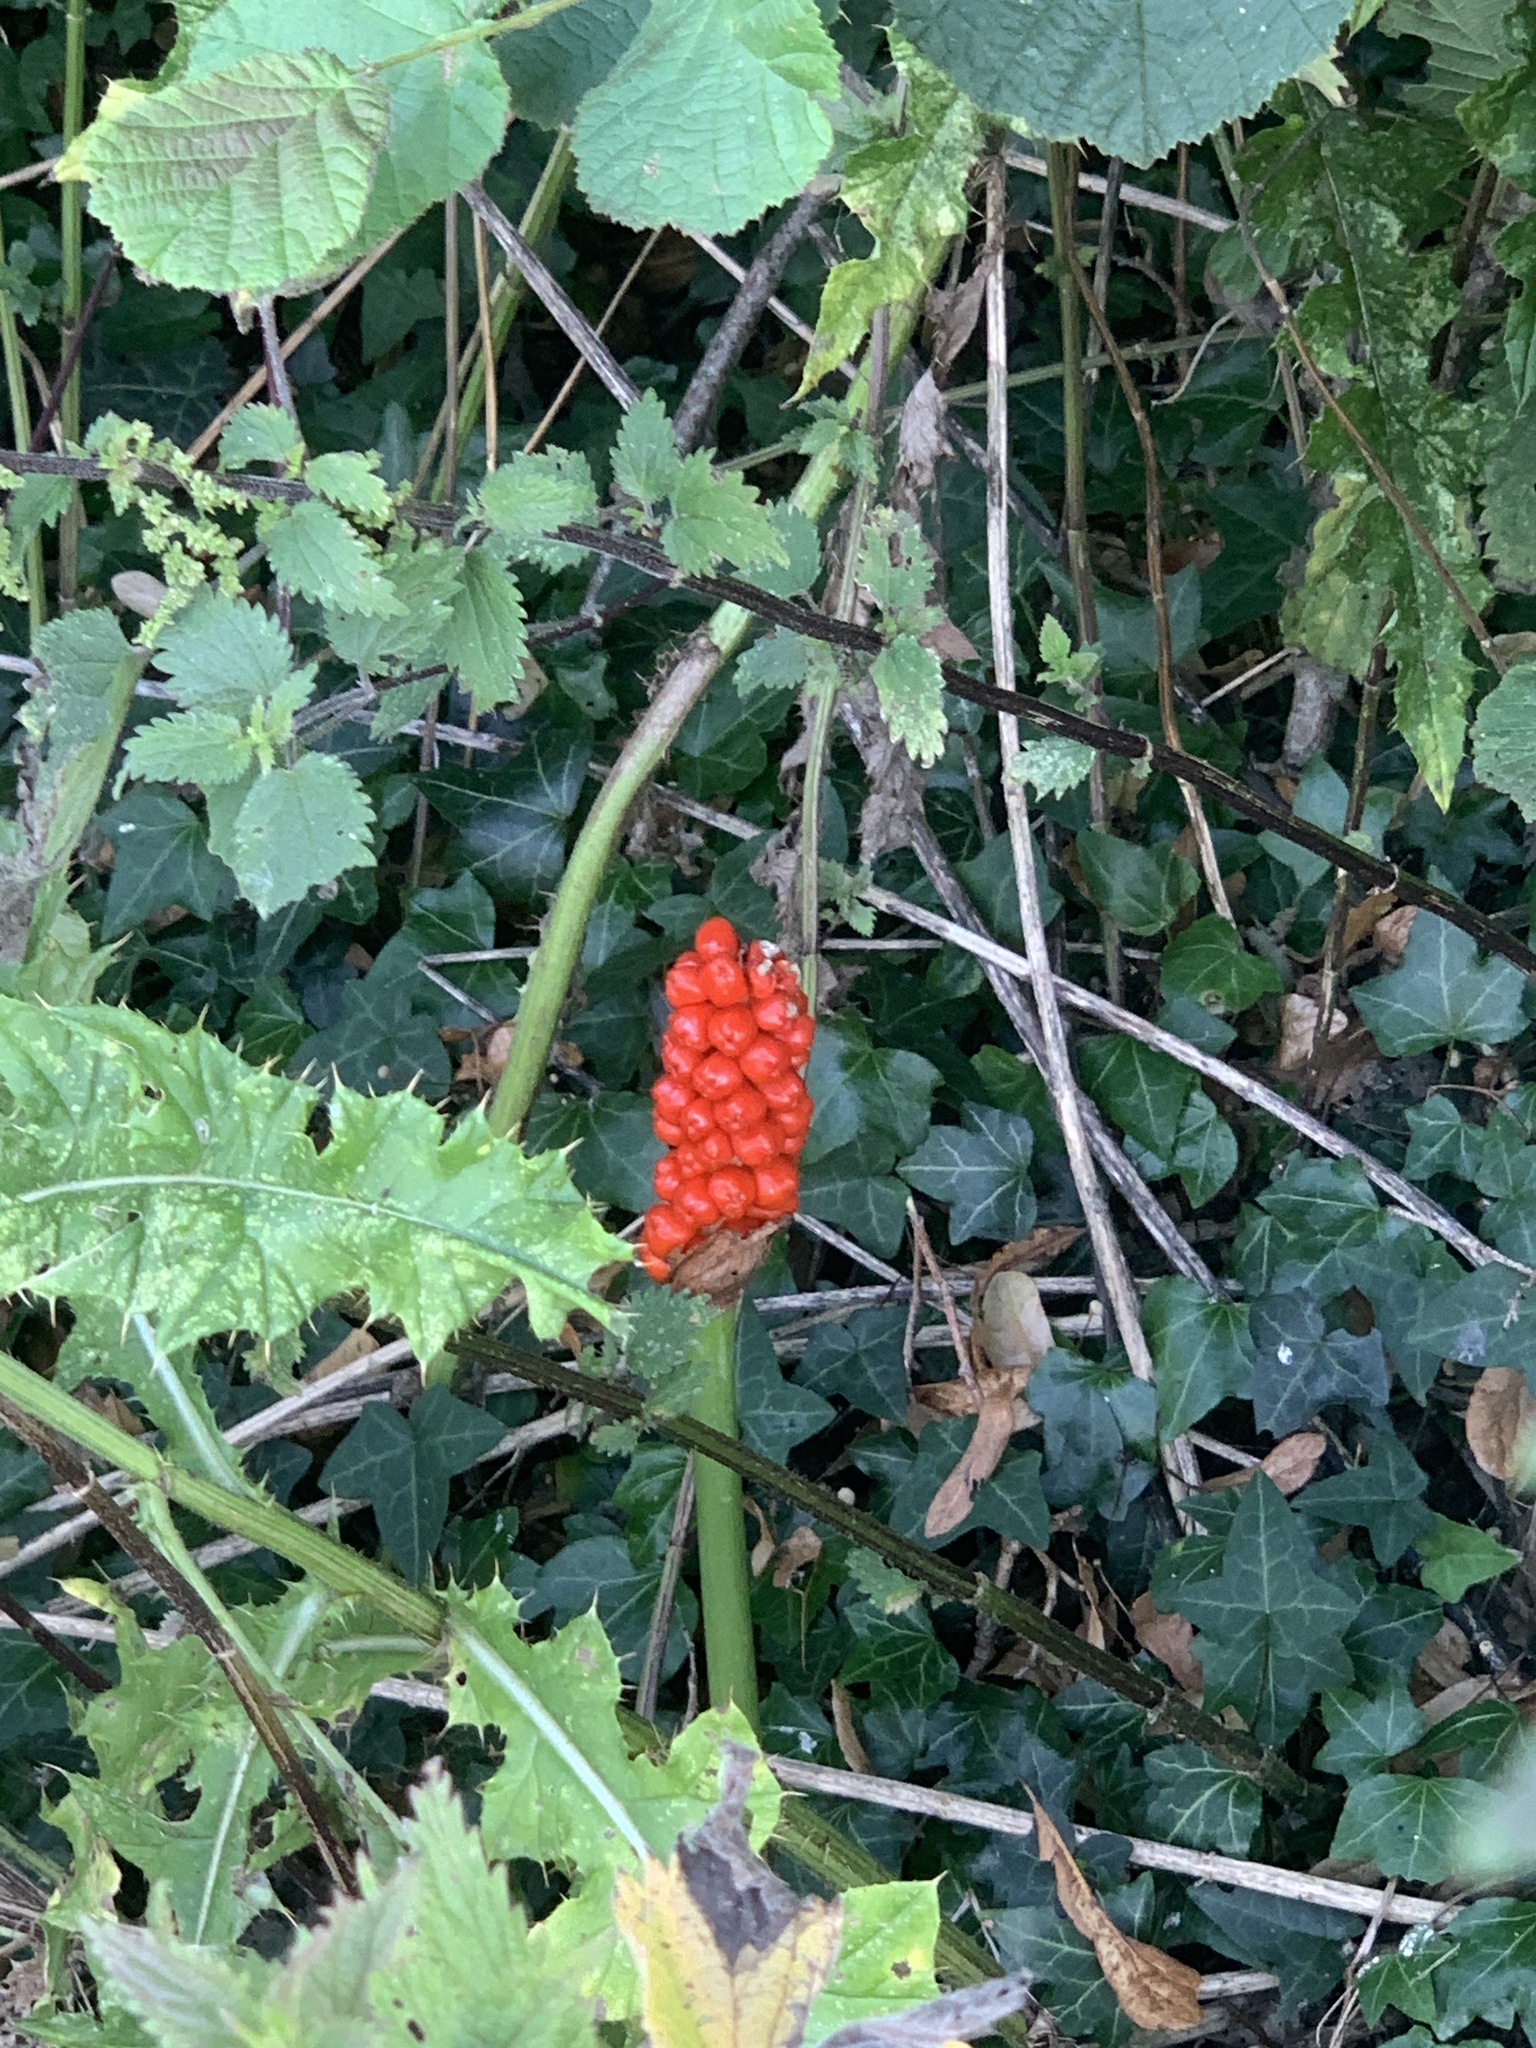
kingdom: Plantae
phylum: Tracheophyta
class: Liliopsida
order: Alismatales
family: Araceae
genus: Arum
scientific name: Arum maculatum
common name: Lords-and-ladies
